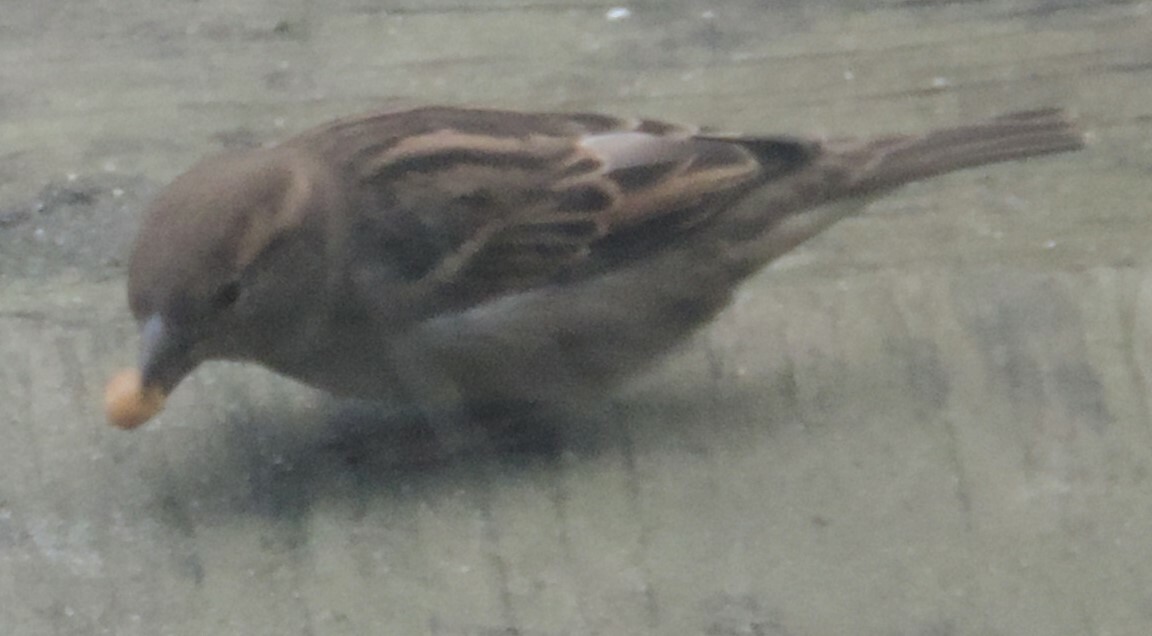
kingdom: Animalia
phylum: Chordata
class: Aves
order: Passeriformes
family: Passeridae
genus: Passer
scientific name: Passer domesticus
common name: House sparrow
